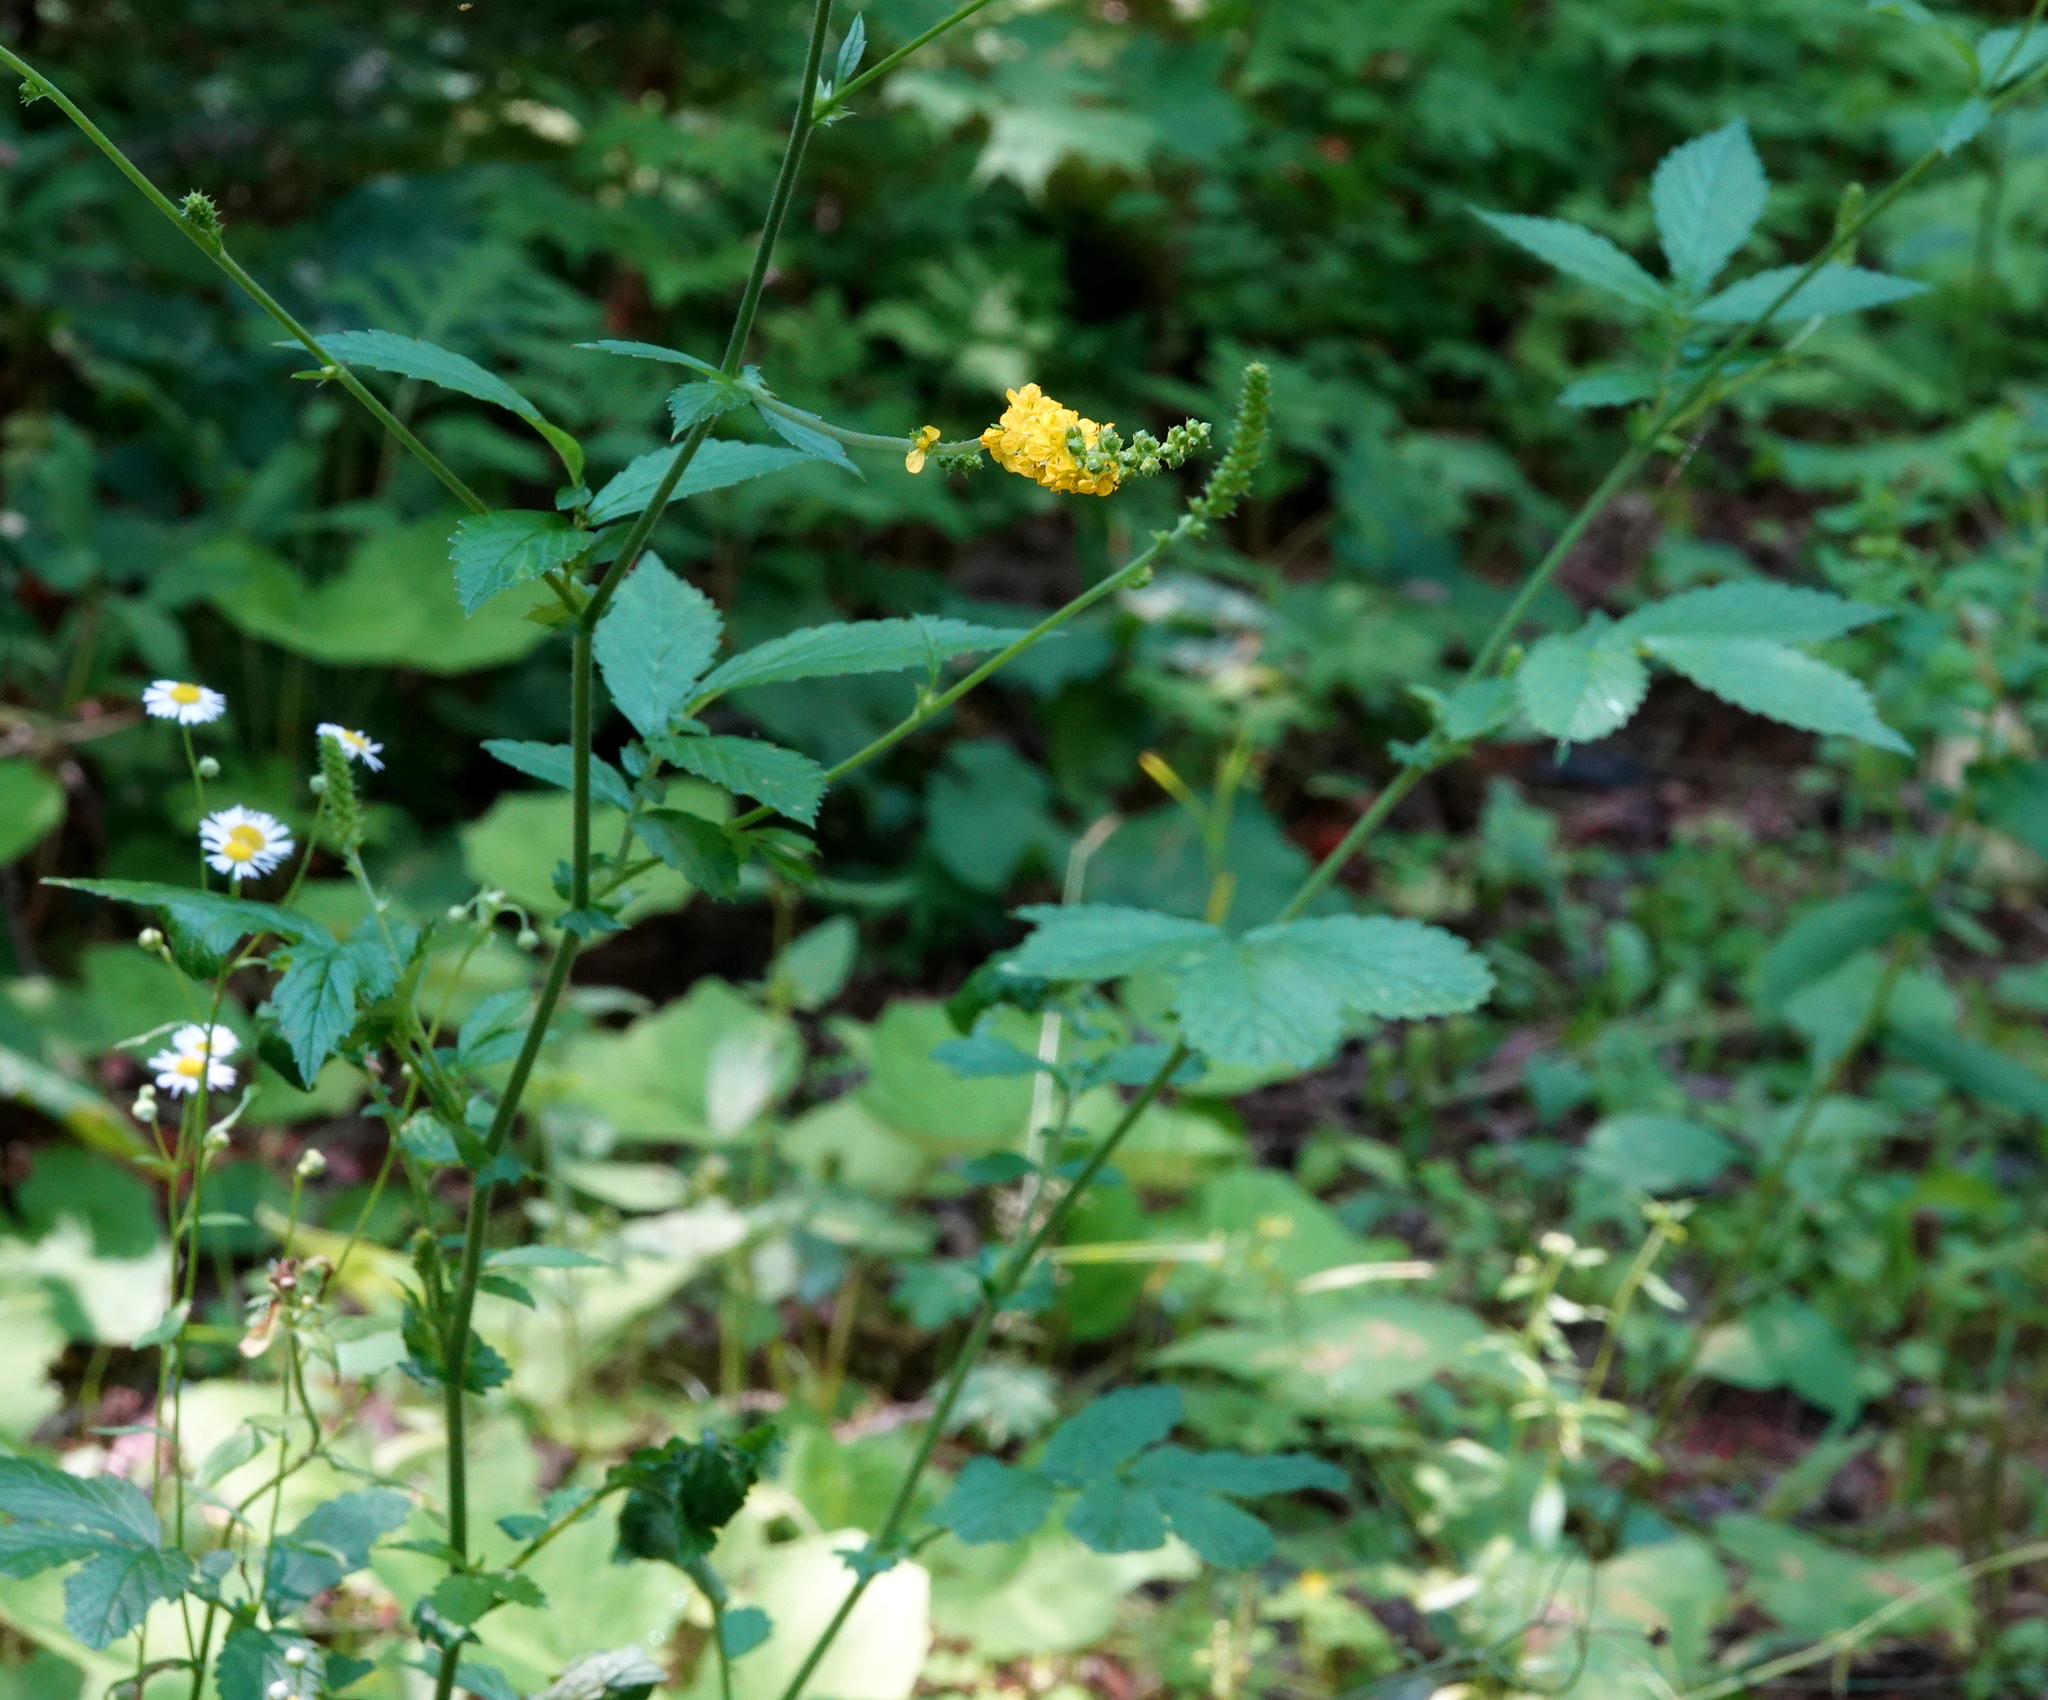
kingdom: Plantae
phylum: Tracheophyta
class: Magnoliopsida
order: Rosales
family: Rosaceae
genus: Agrimonia
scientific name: Agrimonia striata
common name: Britton's agrimony
